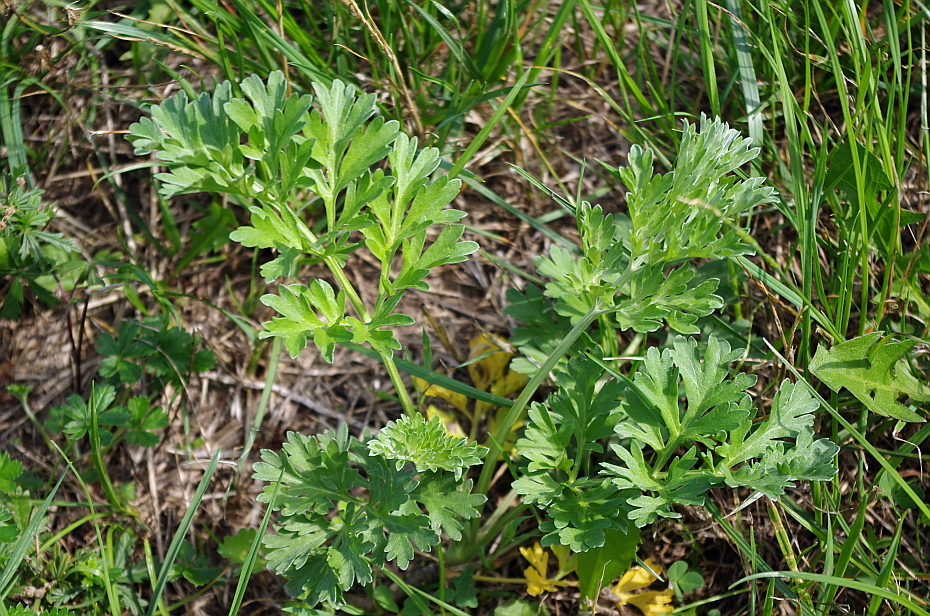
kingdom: Plantae
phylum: Tracheophyta
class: Magnoliopsida
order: Asterales
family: Asteraceae
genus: Artemisia
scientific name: Artemisia absinthium
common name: Wormwood
